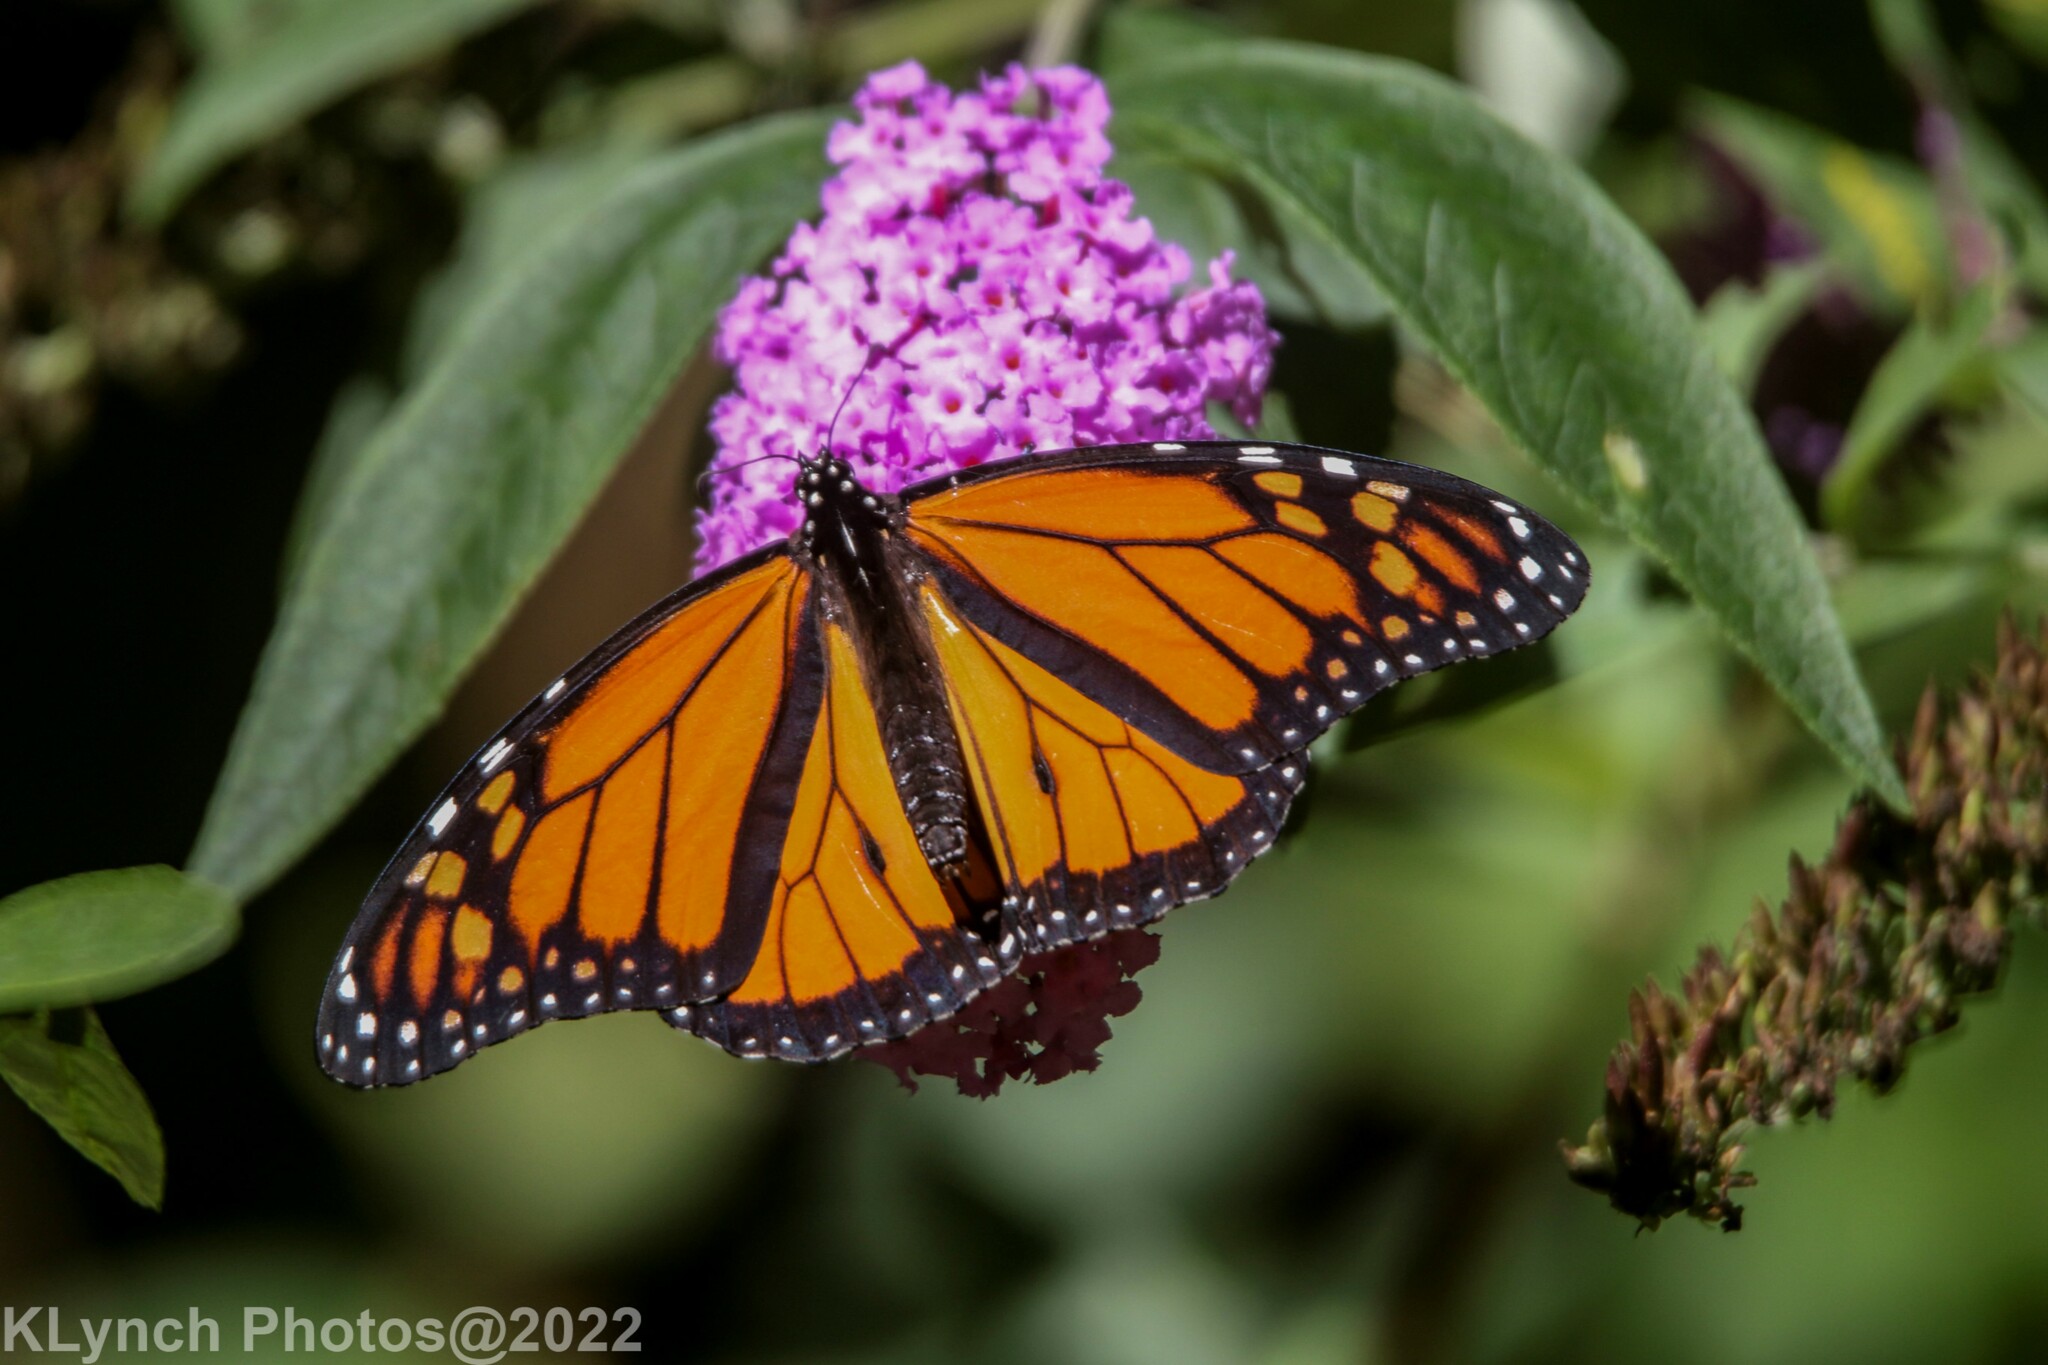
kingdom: Animalia
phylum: Arthropoda
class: Insecta
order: Lepidoptera
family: Nymphalidae
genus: Danaus
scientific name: Danaus plexippus
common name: Monarch
